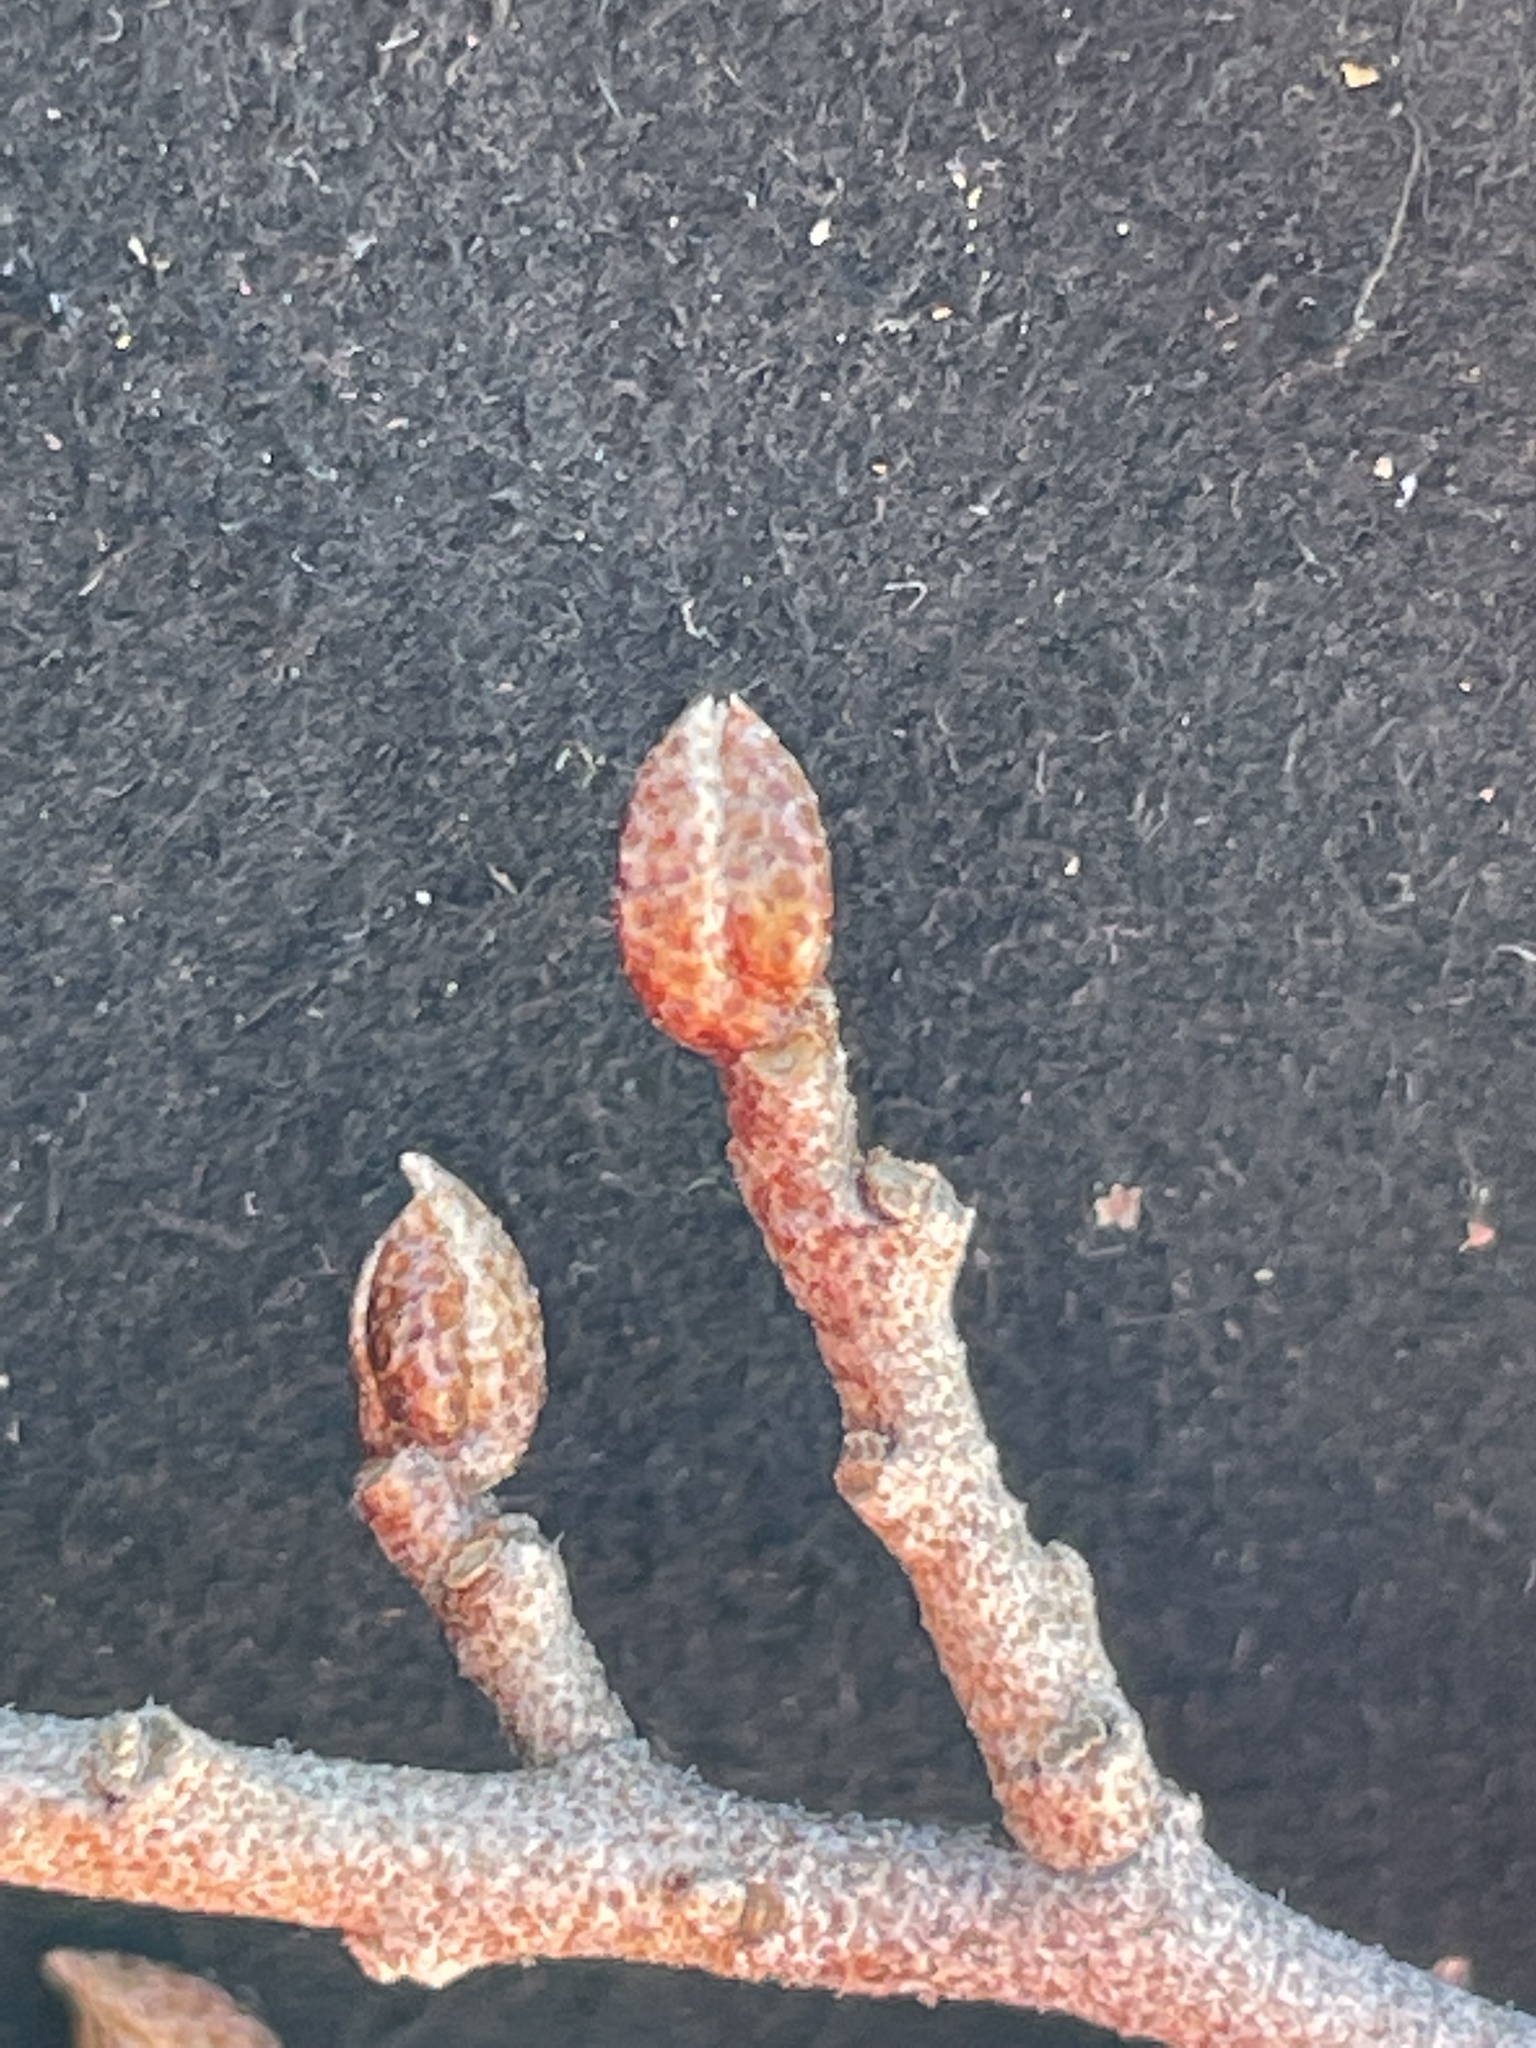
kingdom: Plantae
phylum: Tracheophyta
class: Magnoliopsida
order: Rosales
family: Elaeagnaceae
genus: Elaeagnus
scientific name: Elaeagnus umbellata
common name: Autumn olive
